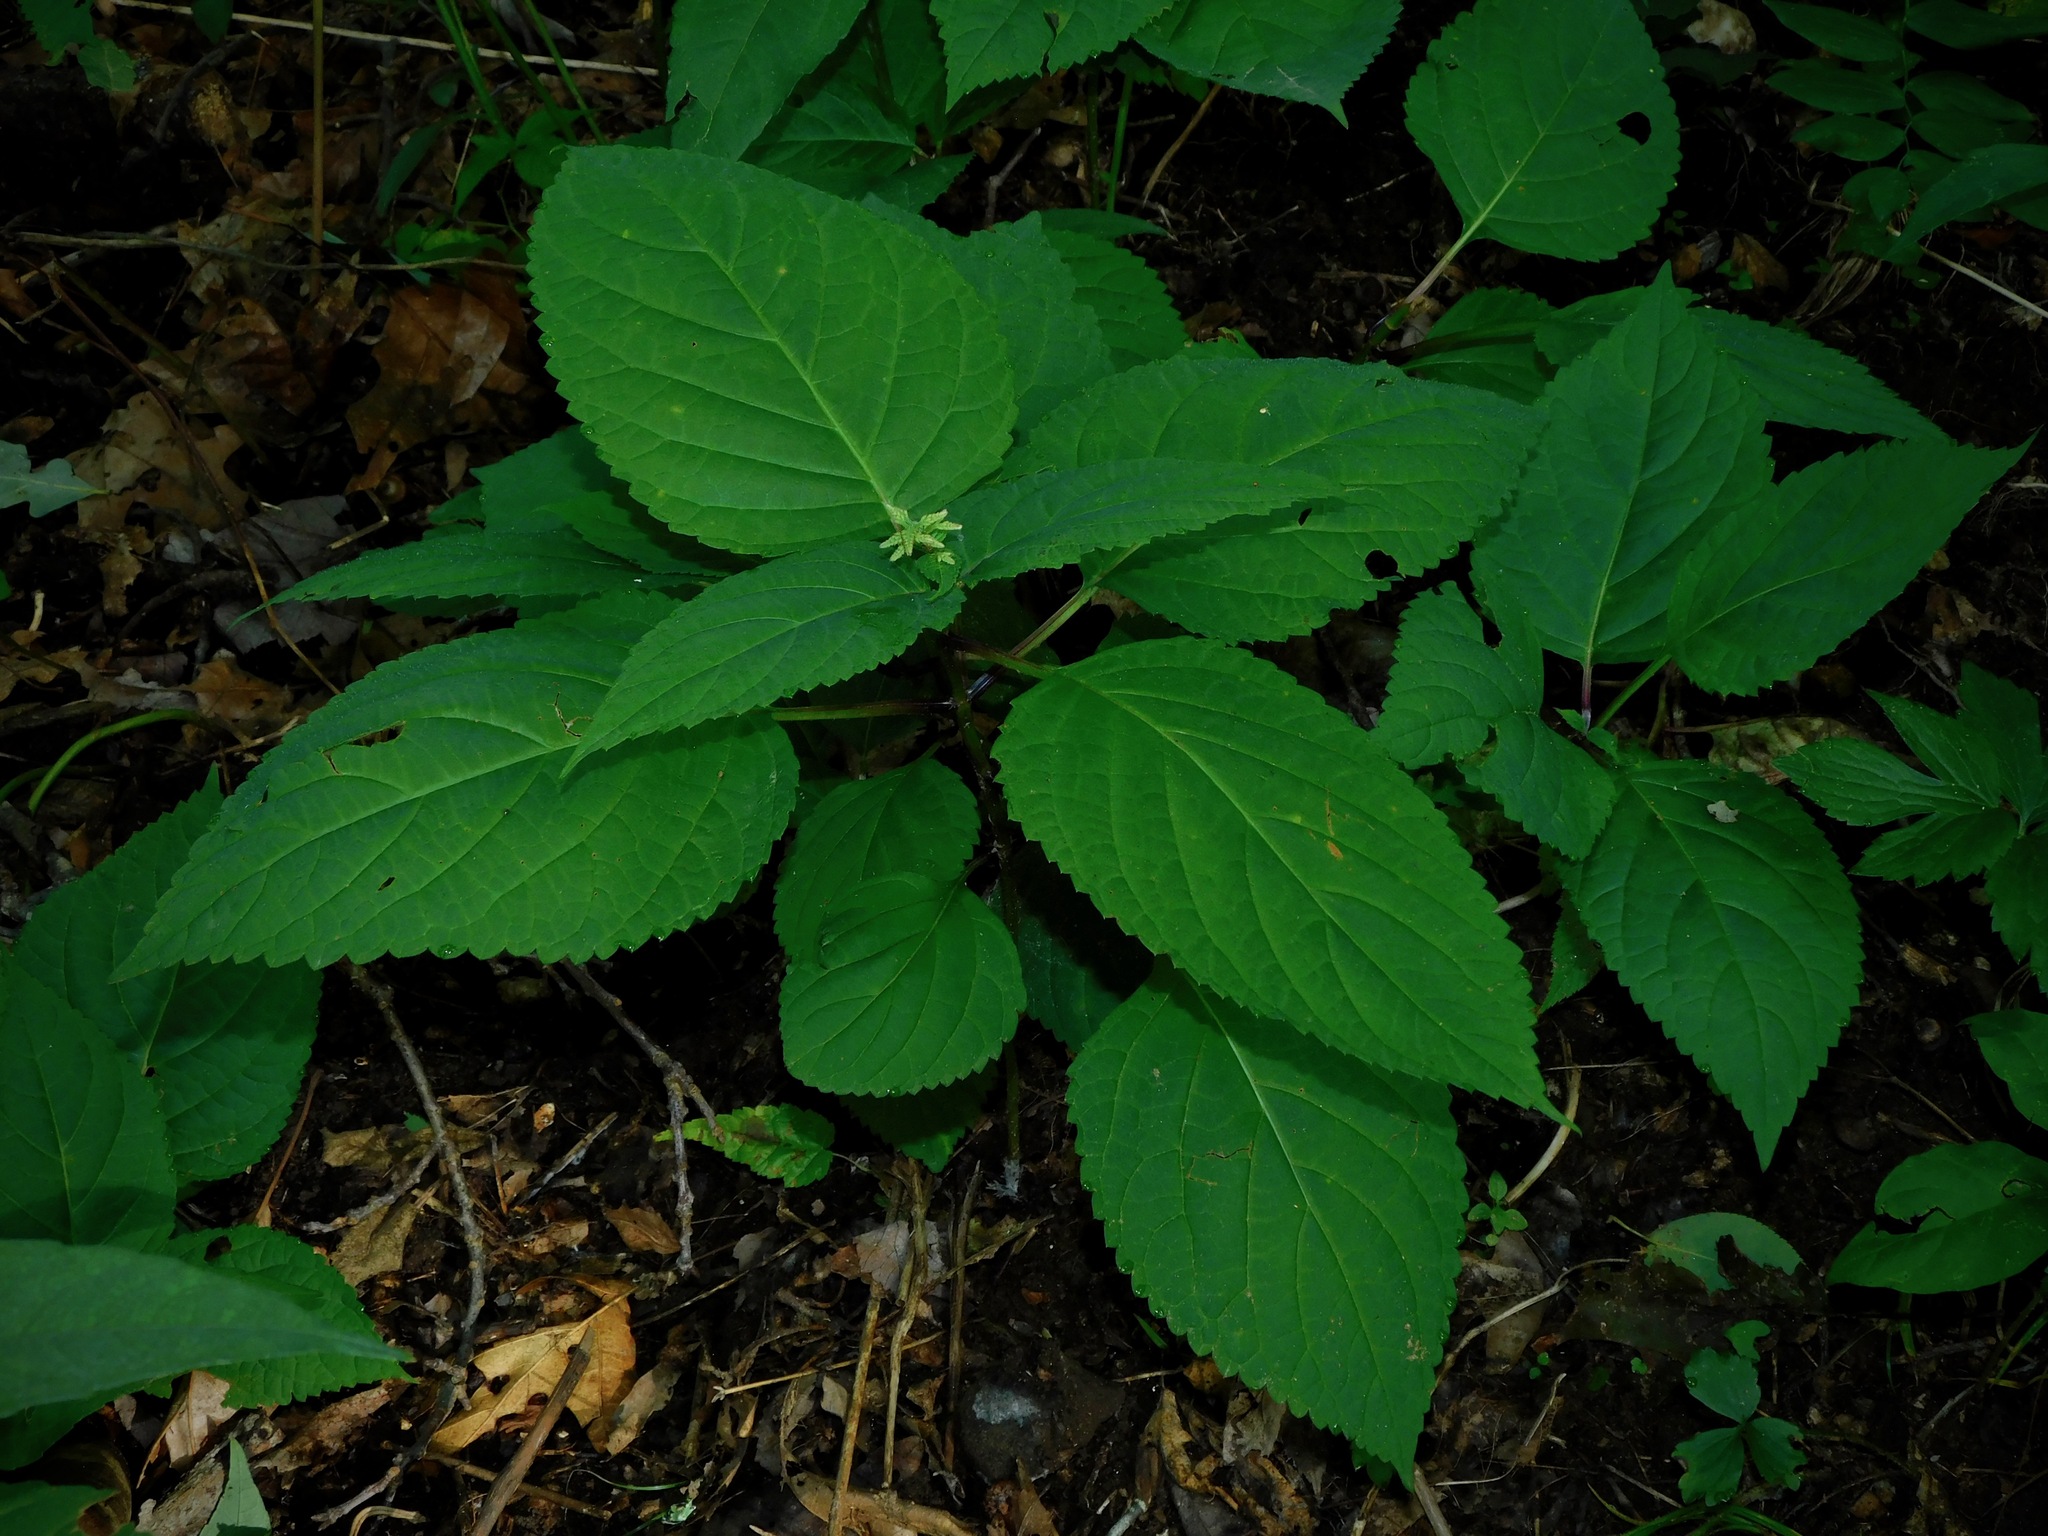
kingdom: Plantae
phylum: Tracheophyta
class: Magnoliopsida
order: Lamiales
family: Lamiaceae
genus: Collinsonia
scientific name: Collinsonia canadensis
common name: Northern horsebalm
